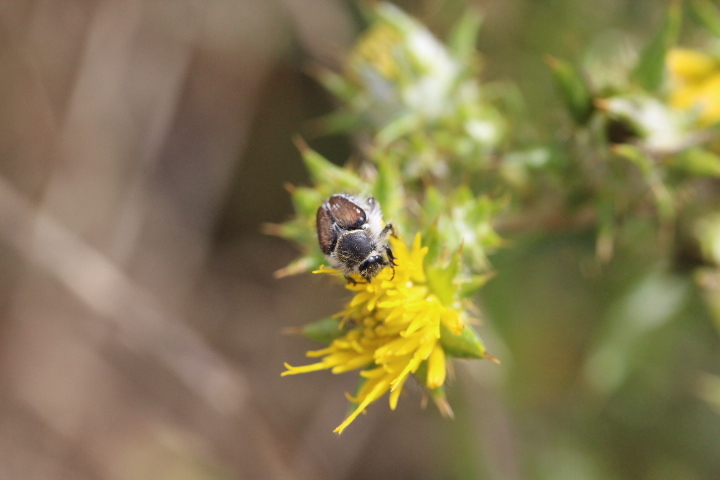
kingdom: Plantae
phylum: Tracheophyta
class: Magnoliopsida
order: Asterales
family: Asteraceae
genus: Berkheya
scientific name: Berkheya rigida
